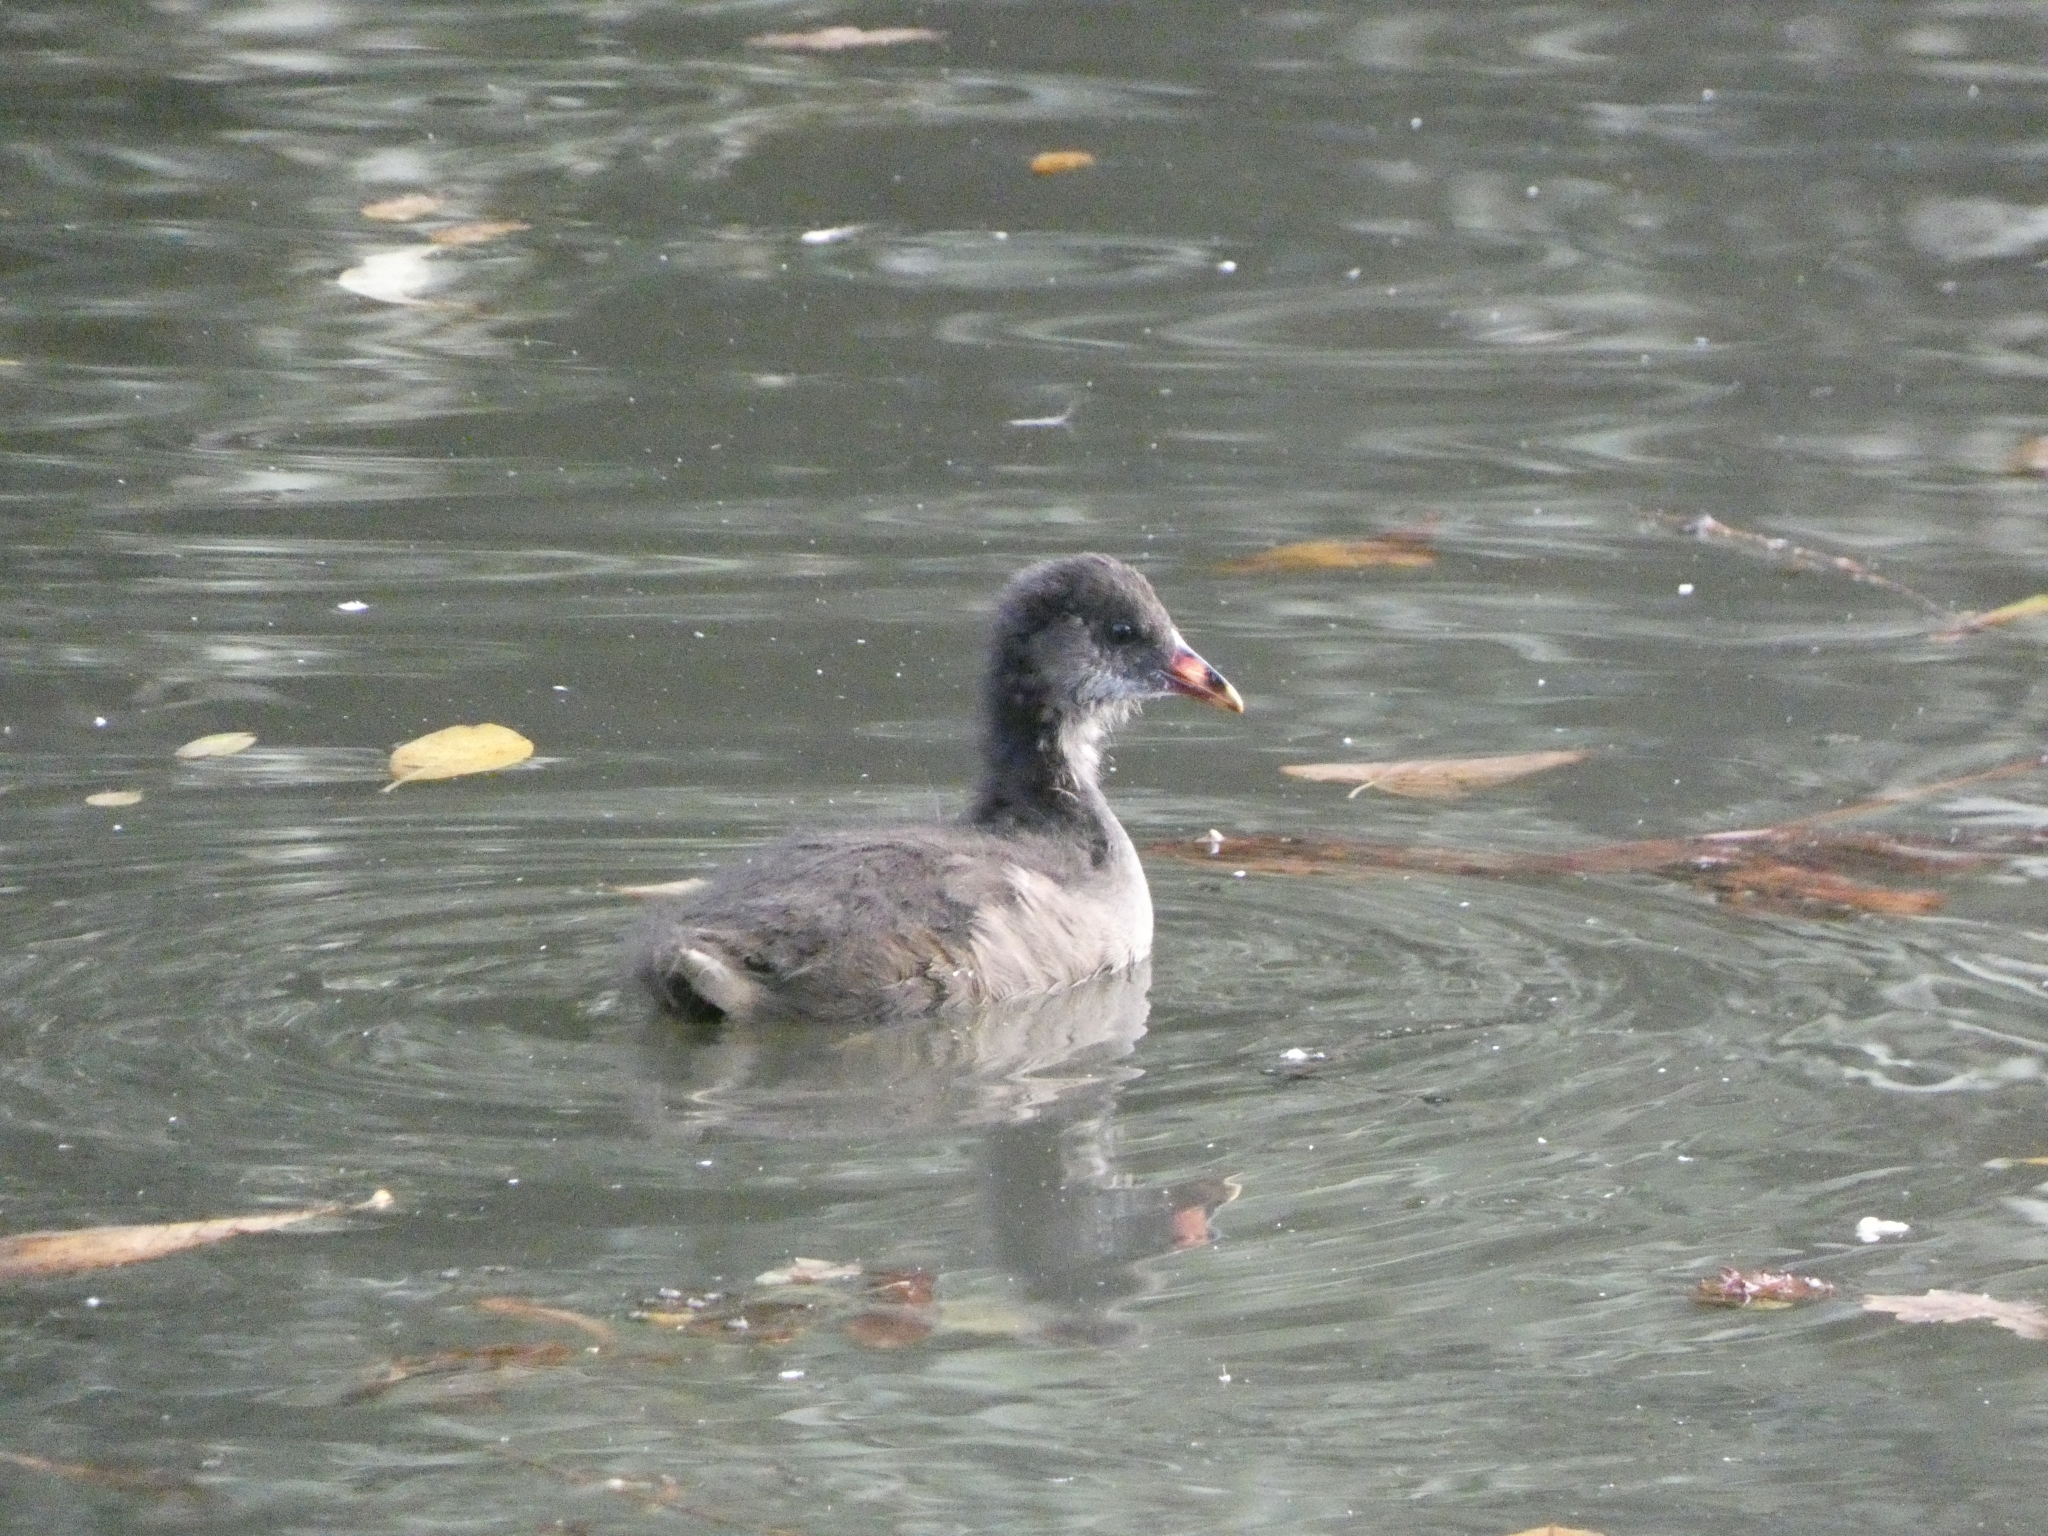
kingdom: Animalia
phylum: Chordata
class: Aves
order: Gruiformes
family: Rallidae
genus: Fulica
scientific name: Fulica atra
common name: Eurasian coot
